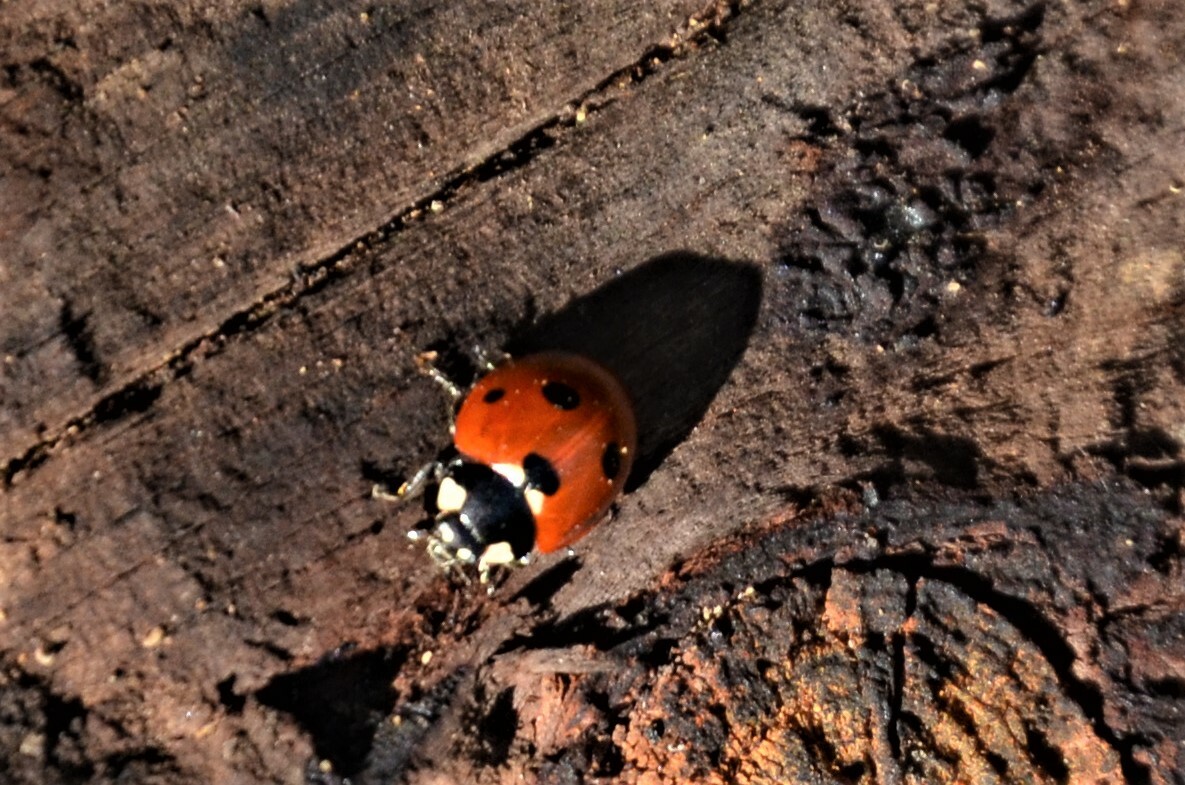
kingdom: Animalia
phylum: Arthropoda
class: Insecta
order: Coleoptera
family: Coccinellidae
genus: Coccinella
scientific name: Coccinella septempunctata
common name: Sevenspotted lady beetle
